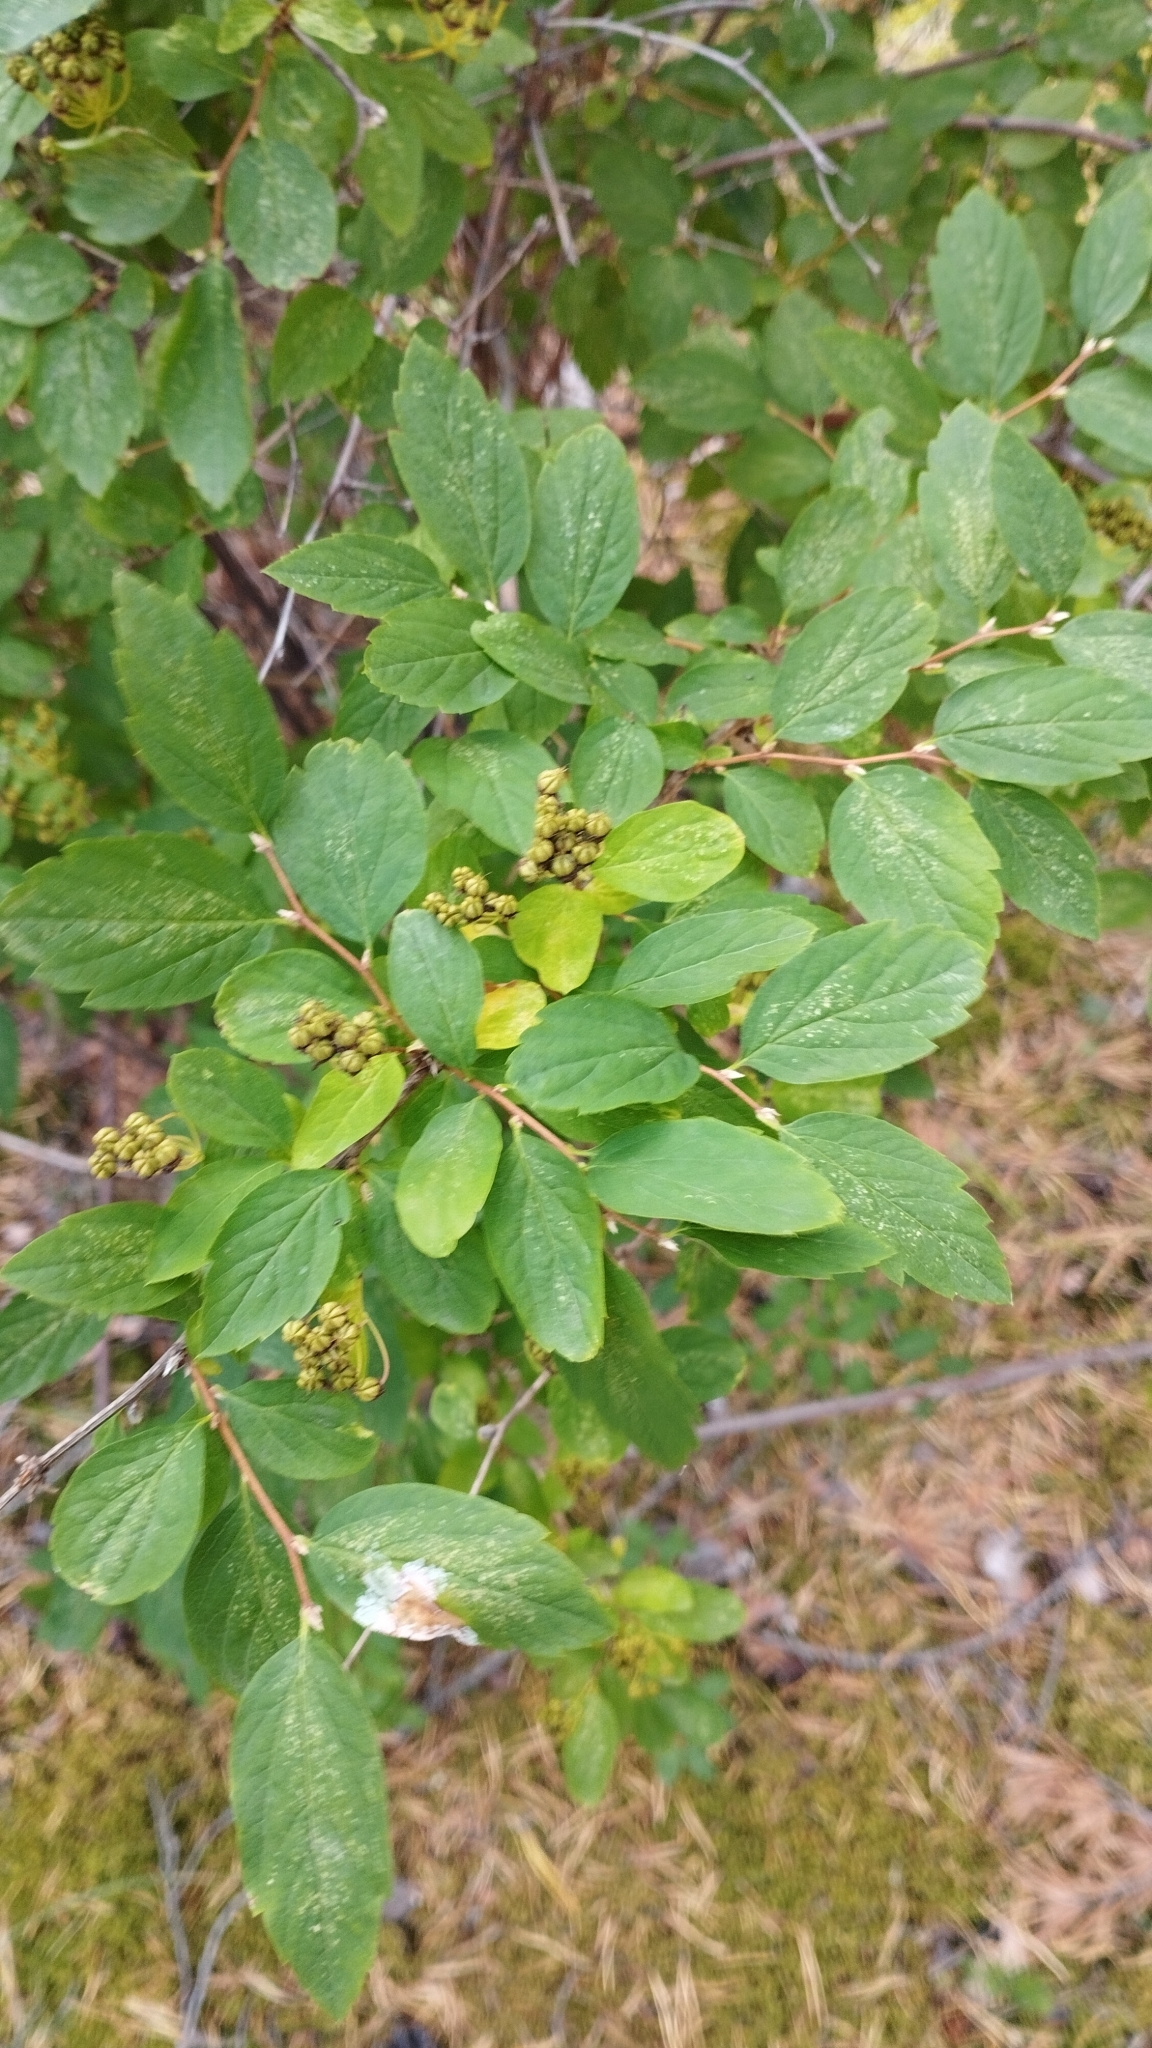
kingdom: Plantae
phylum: Tracheophyta
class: Magnoliopsida
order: Rosales
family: Rosaceae
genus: Spiraea
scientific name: Spiraea media
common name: Russian spiraea
